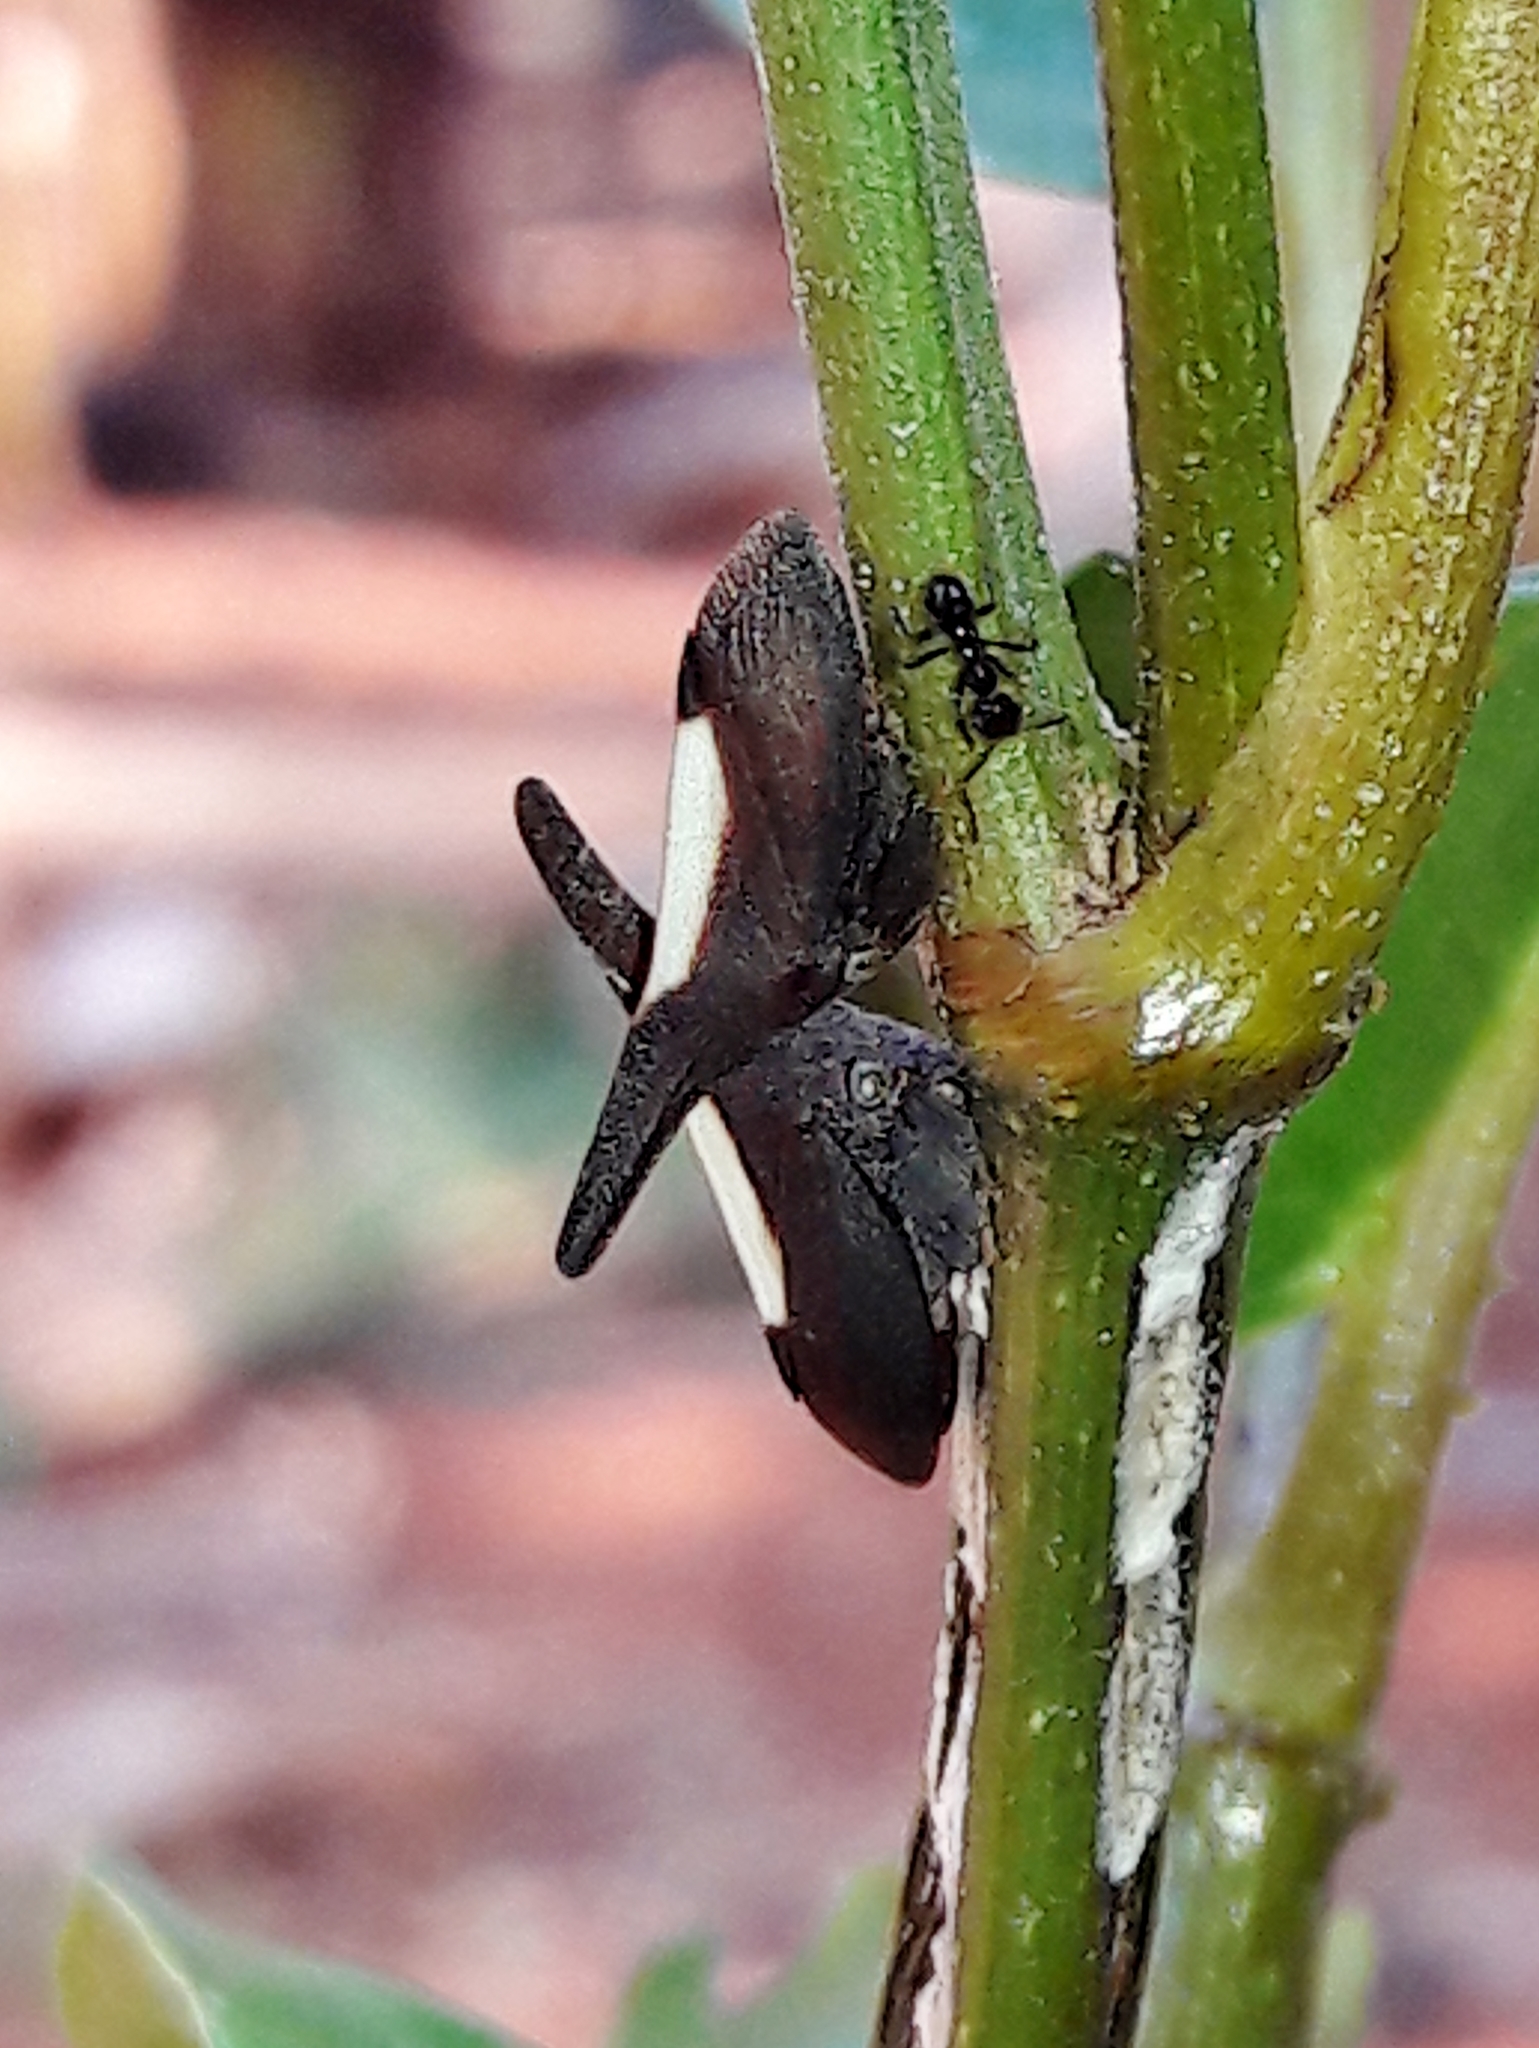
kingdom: Animalia
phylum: Arthropoda
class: Insecta
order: Hemiptera
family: Membracidae
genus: Enchenopa
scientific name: Enchenopa albidorsa
